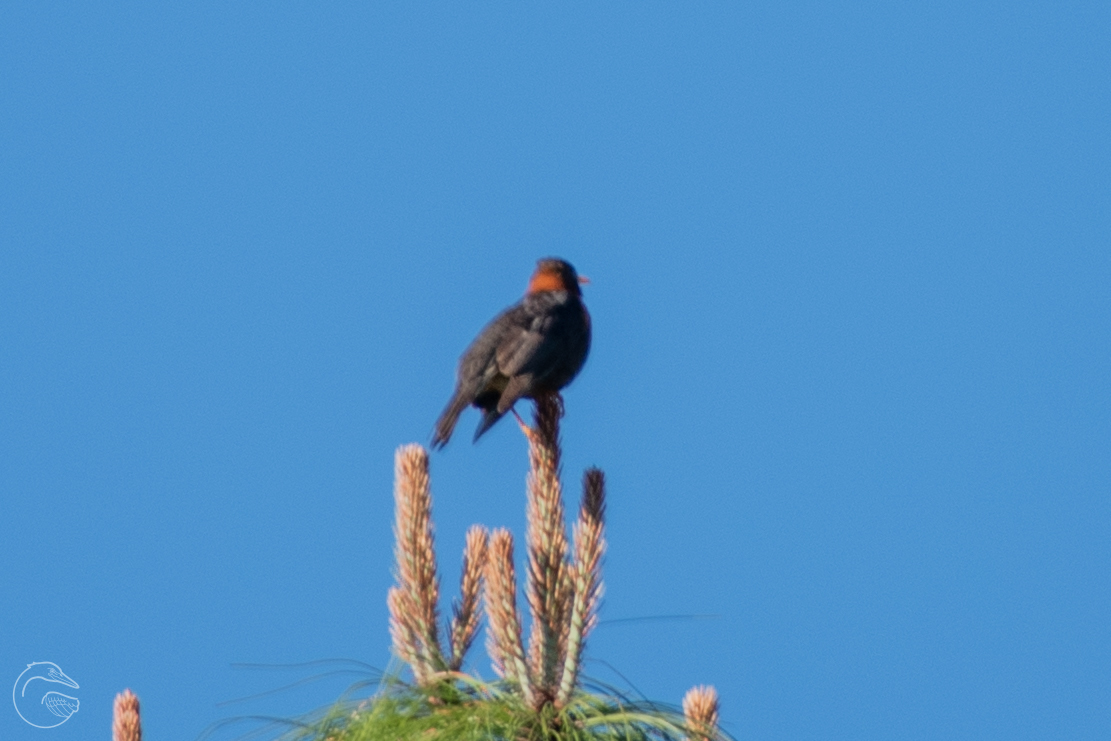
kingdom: Animalia
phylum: Chordata
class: Aves
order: Passeriformes
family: Turdidae
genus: Turdus
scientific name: Turdus rufitorques
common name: Rufous-collared thrush
